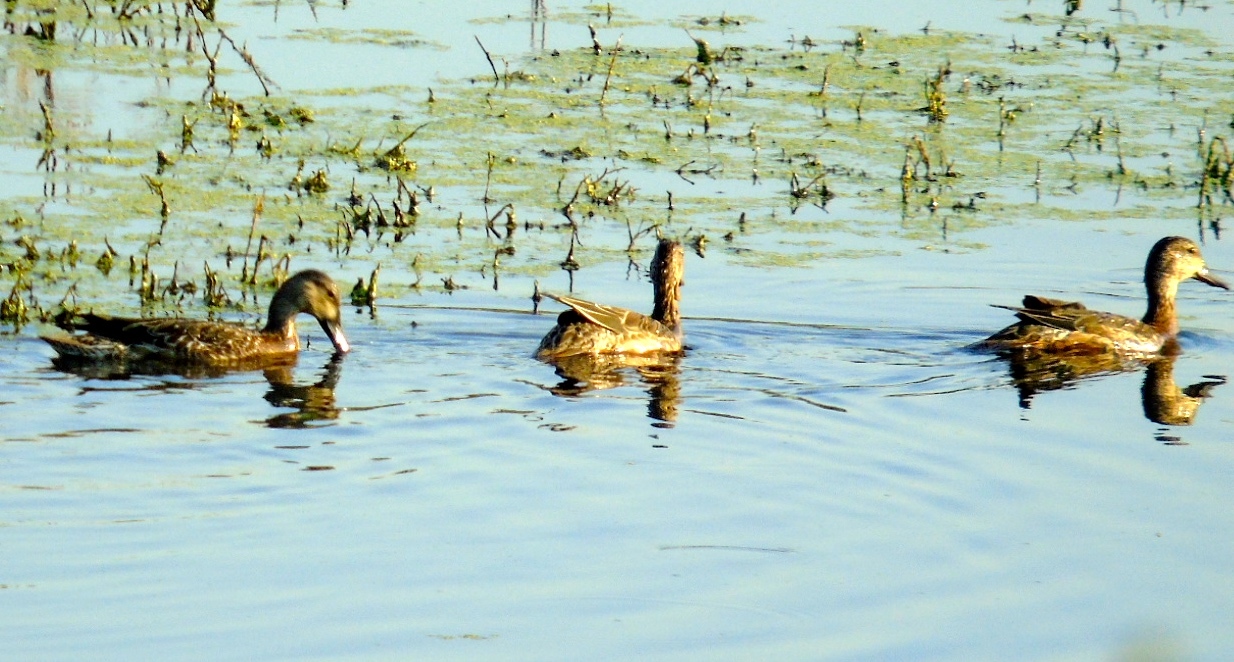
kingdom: Animalia
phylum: Chordata
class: Aves
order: Anseriformes
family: Anatidae
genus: Anas
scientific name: Anas platyrhynchos
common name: Mallard
